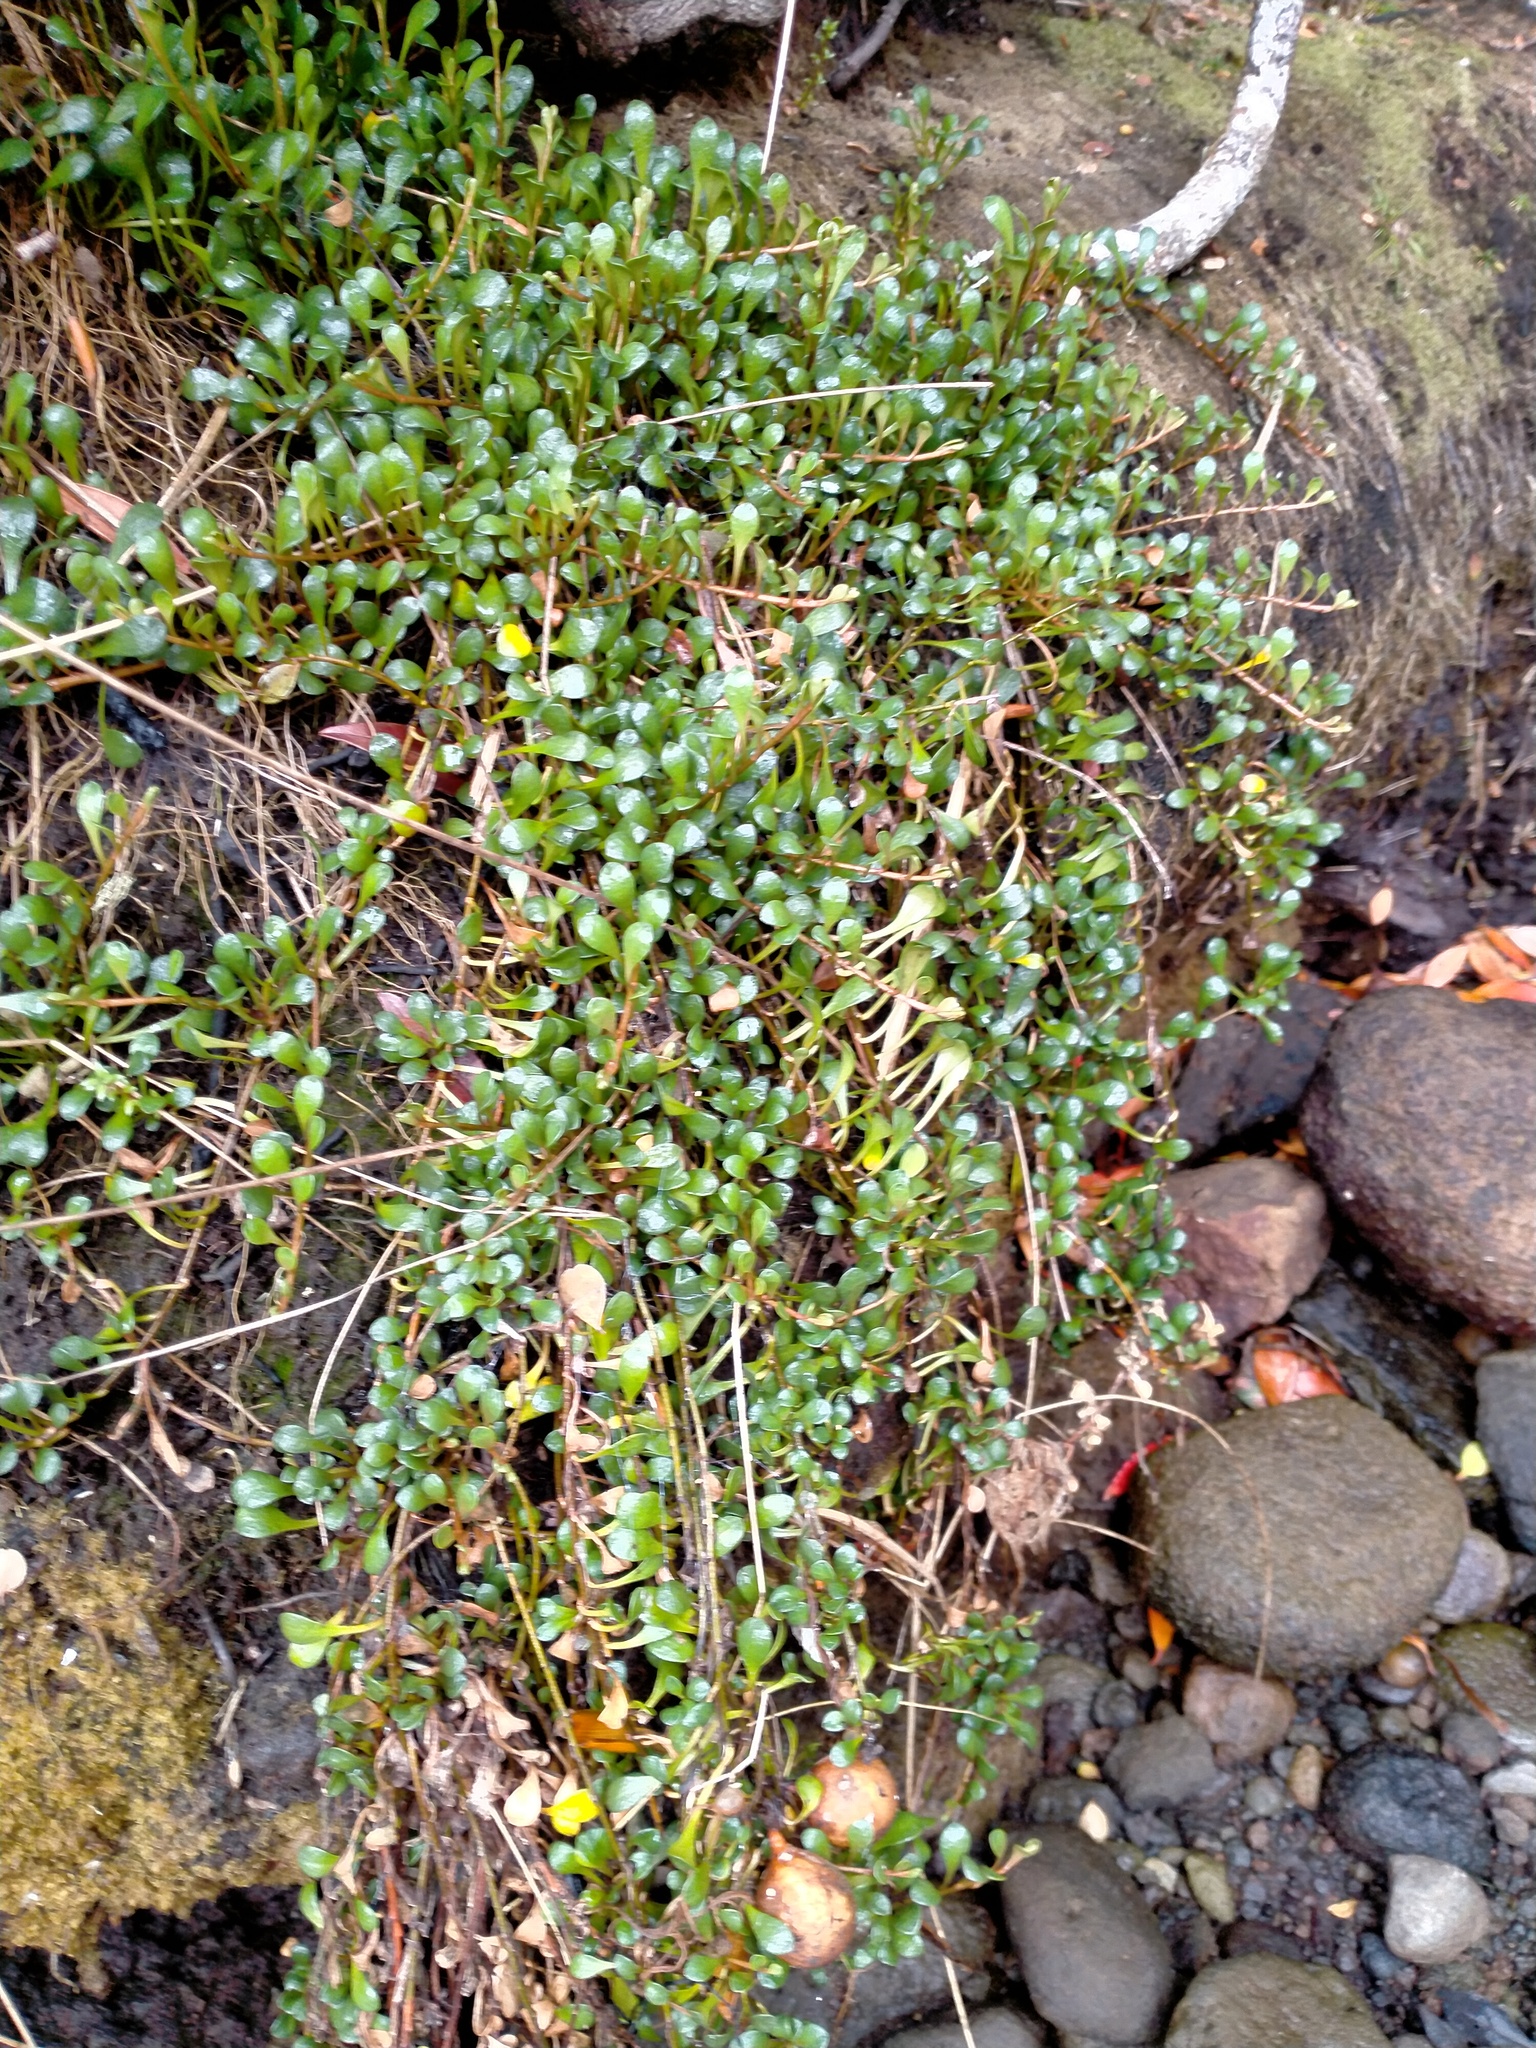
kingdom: Plantae
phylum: Tracheophyta
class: Magnoliopsida
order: Ericales
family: Primulaceae
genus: Samolus
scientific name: Samolus repens
